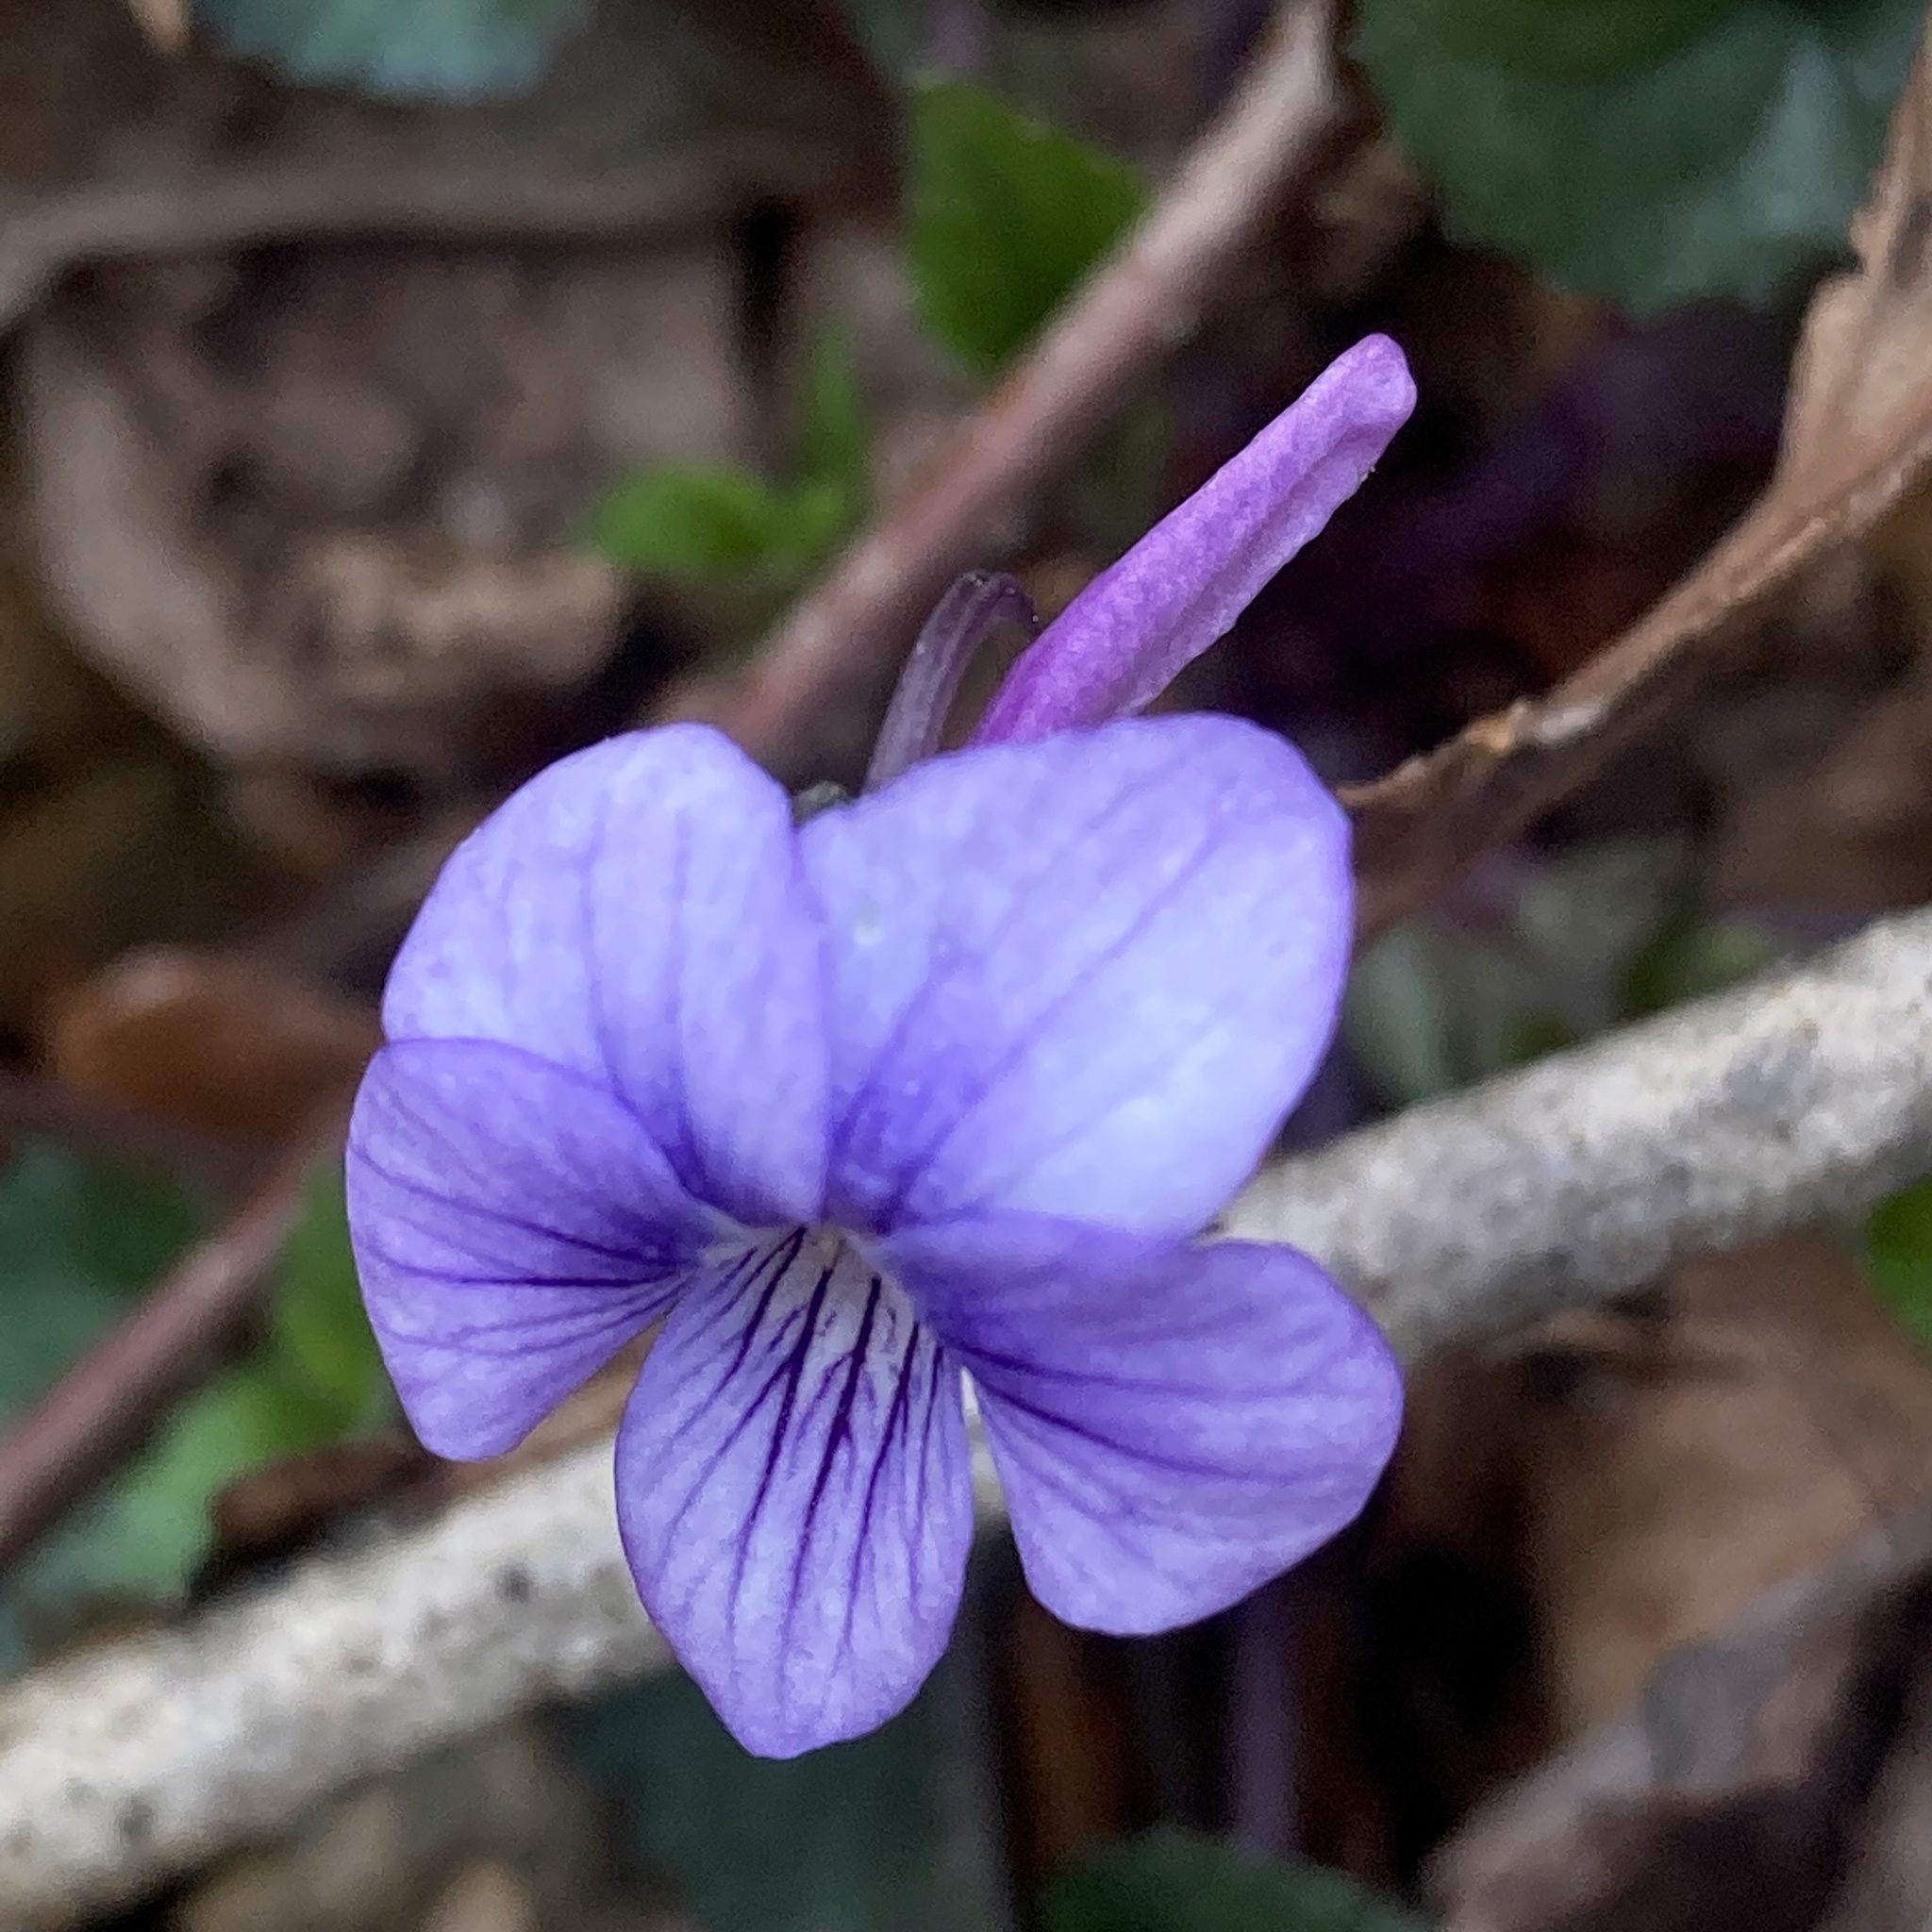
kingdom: Plantae
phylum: Tracheophyta
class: Magnoliopsida
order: Malpighiales
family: Violaceae
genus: Viola
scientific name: Viola rostrata
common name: Long-spur violet
